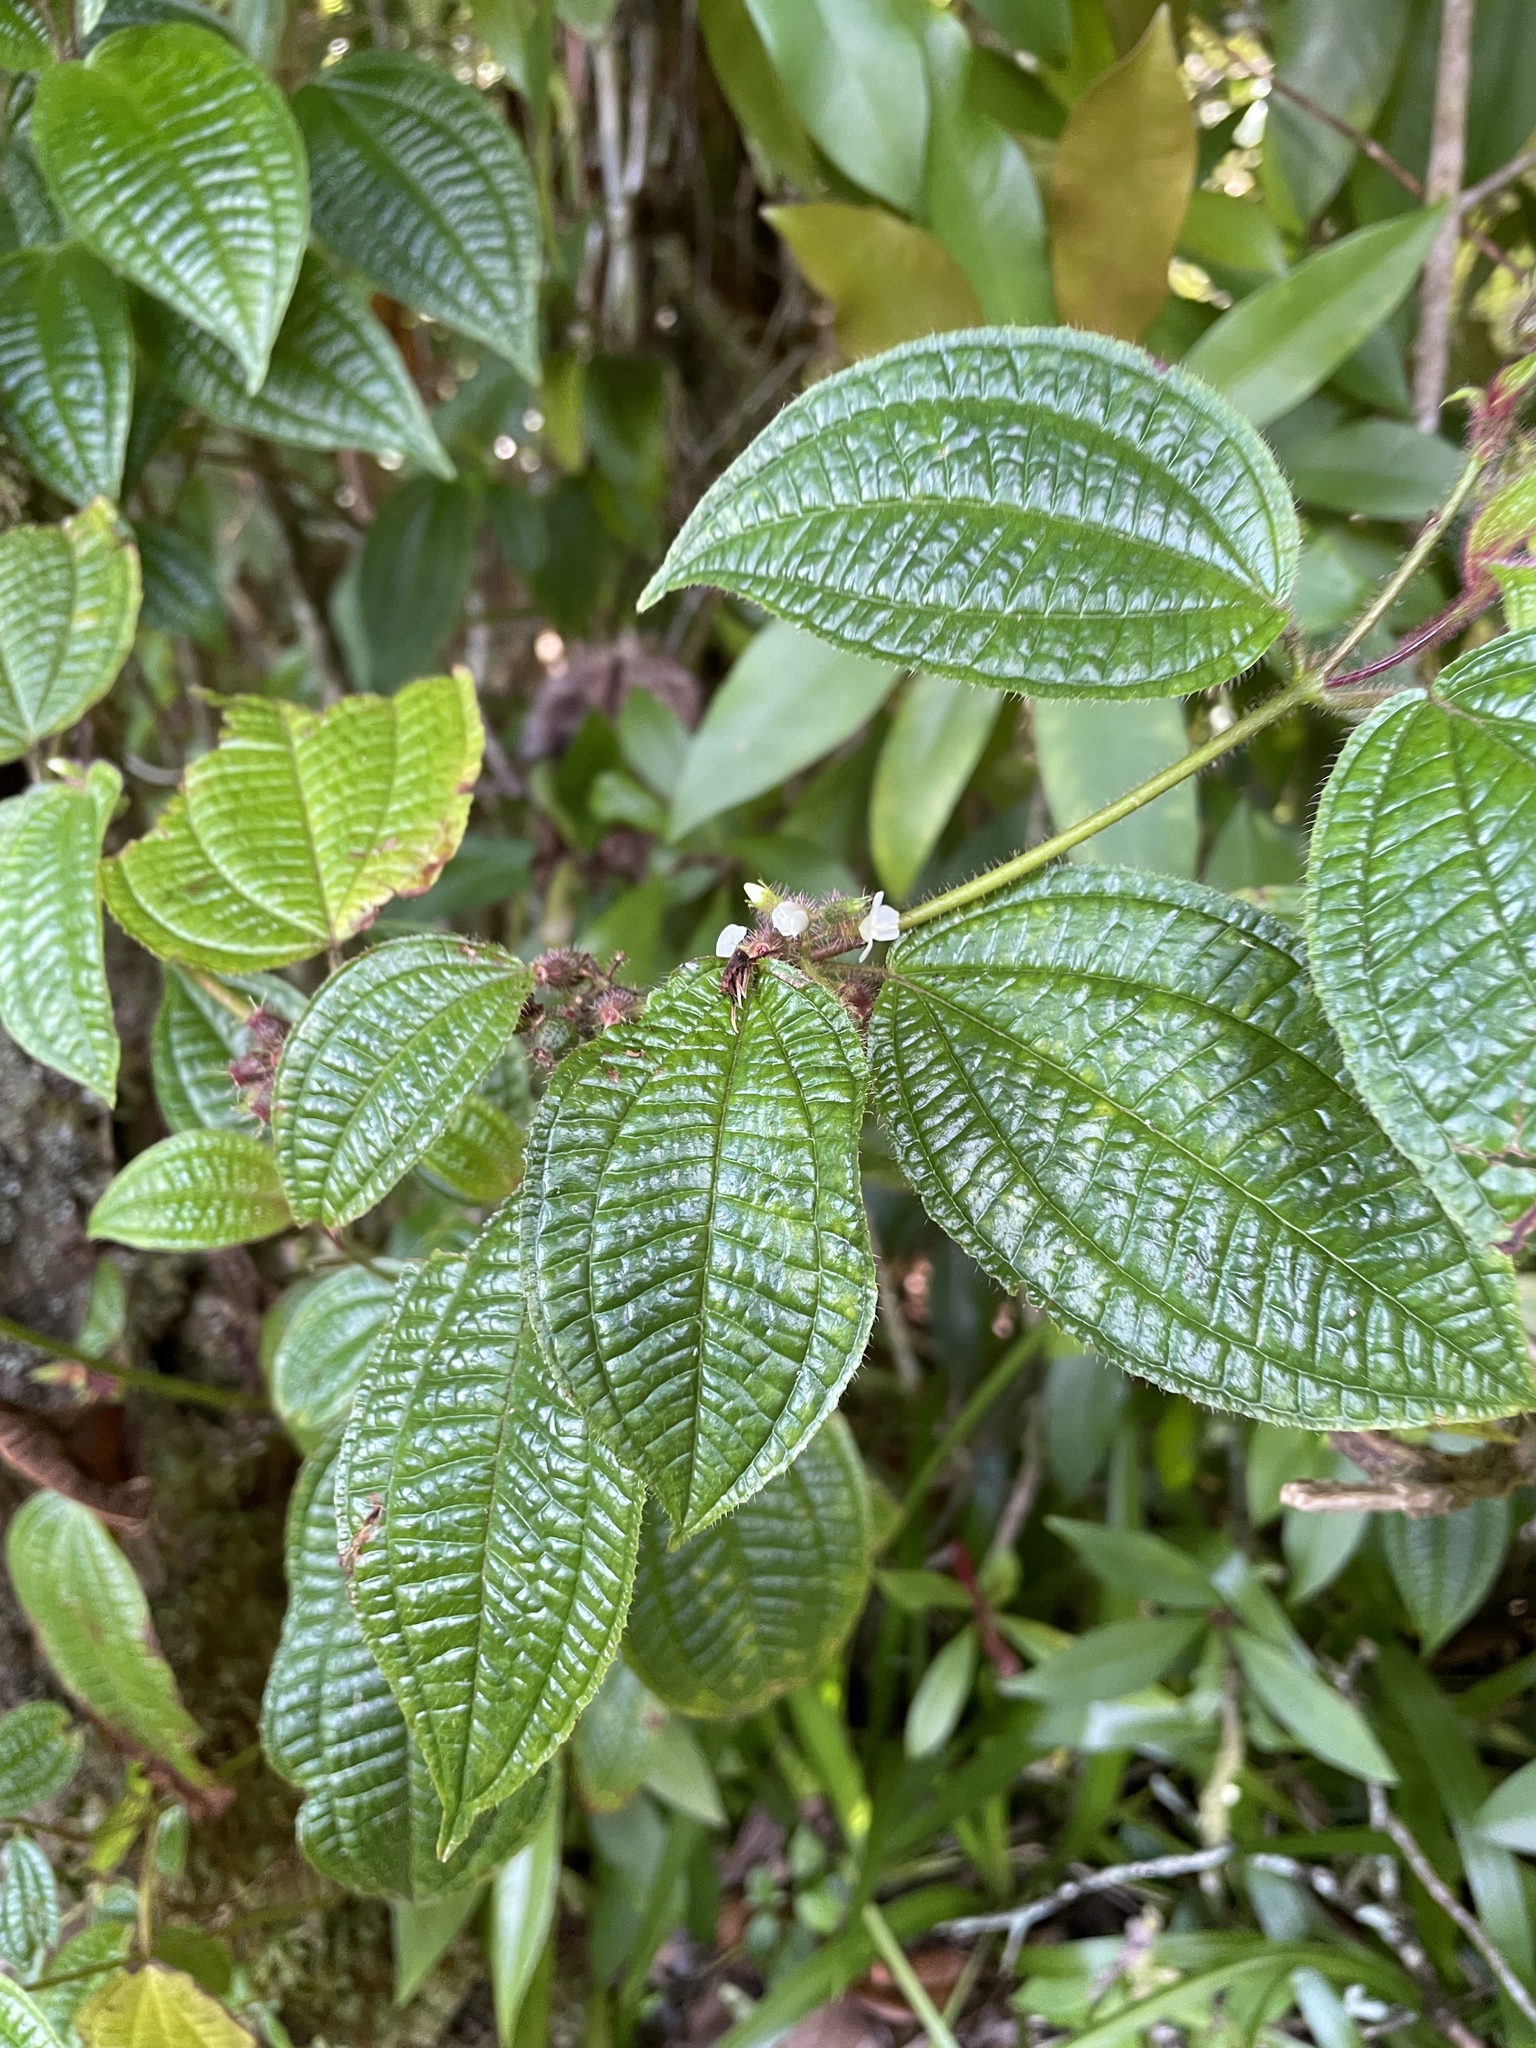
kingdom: Plantae
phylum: Tracheophyta
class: Magnoliopsida
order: Myrtales
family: Melastomataceae
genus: Miconia
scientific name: Miconia crenata
